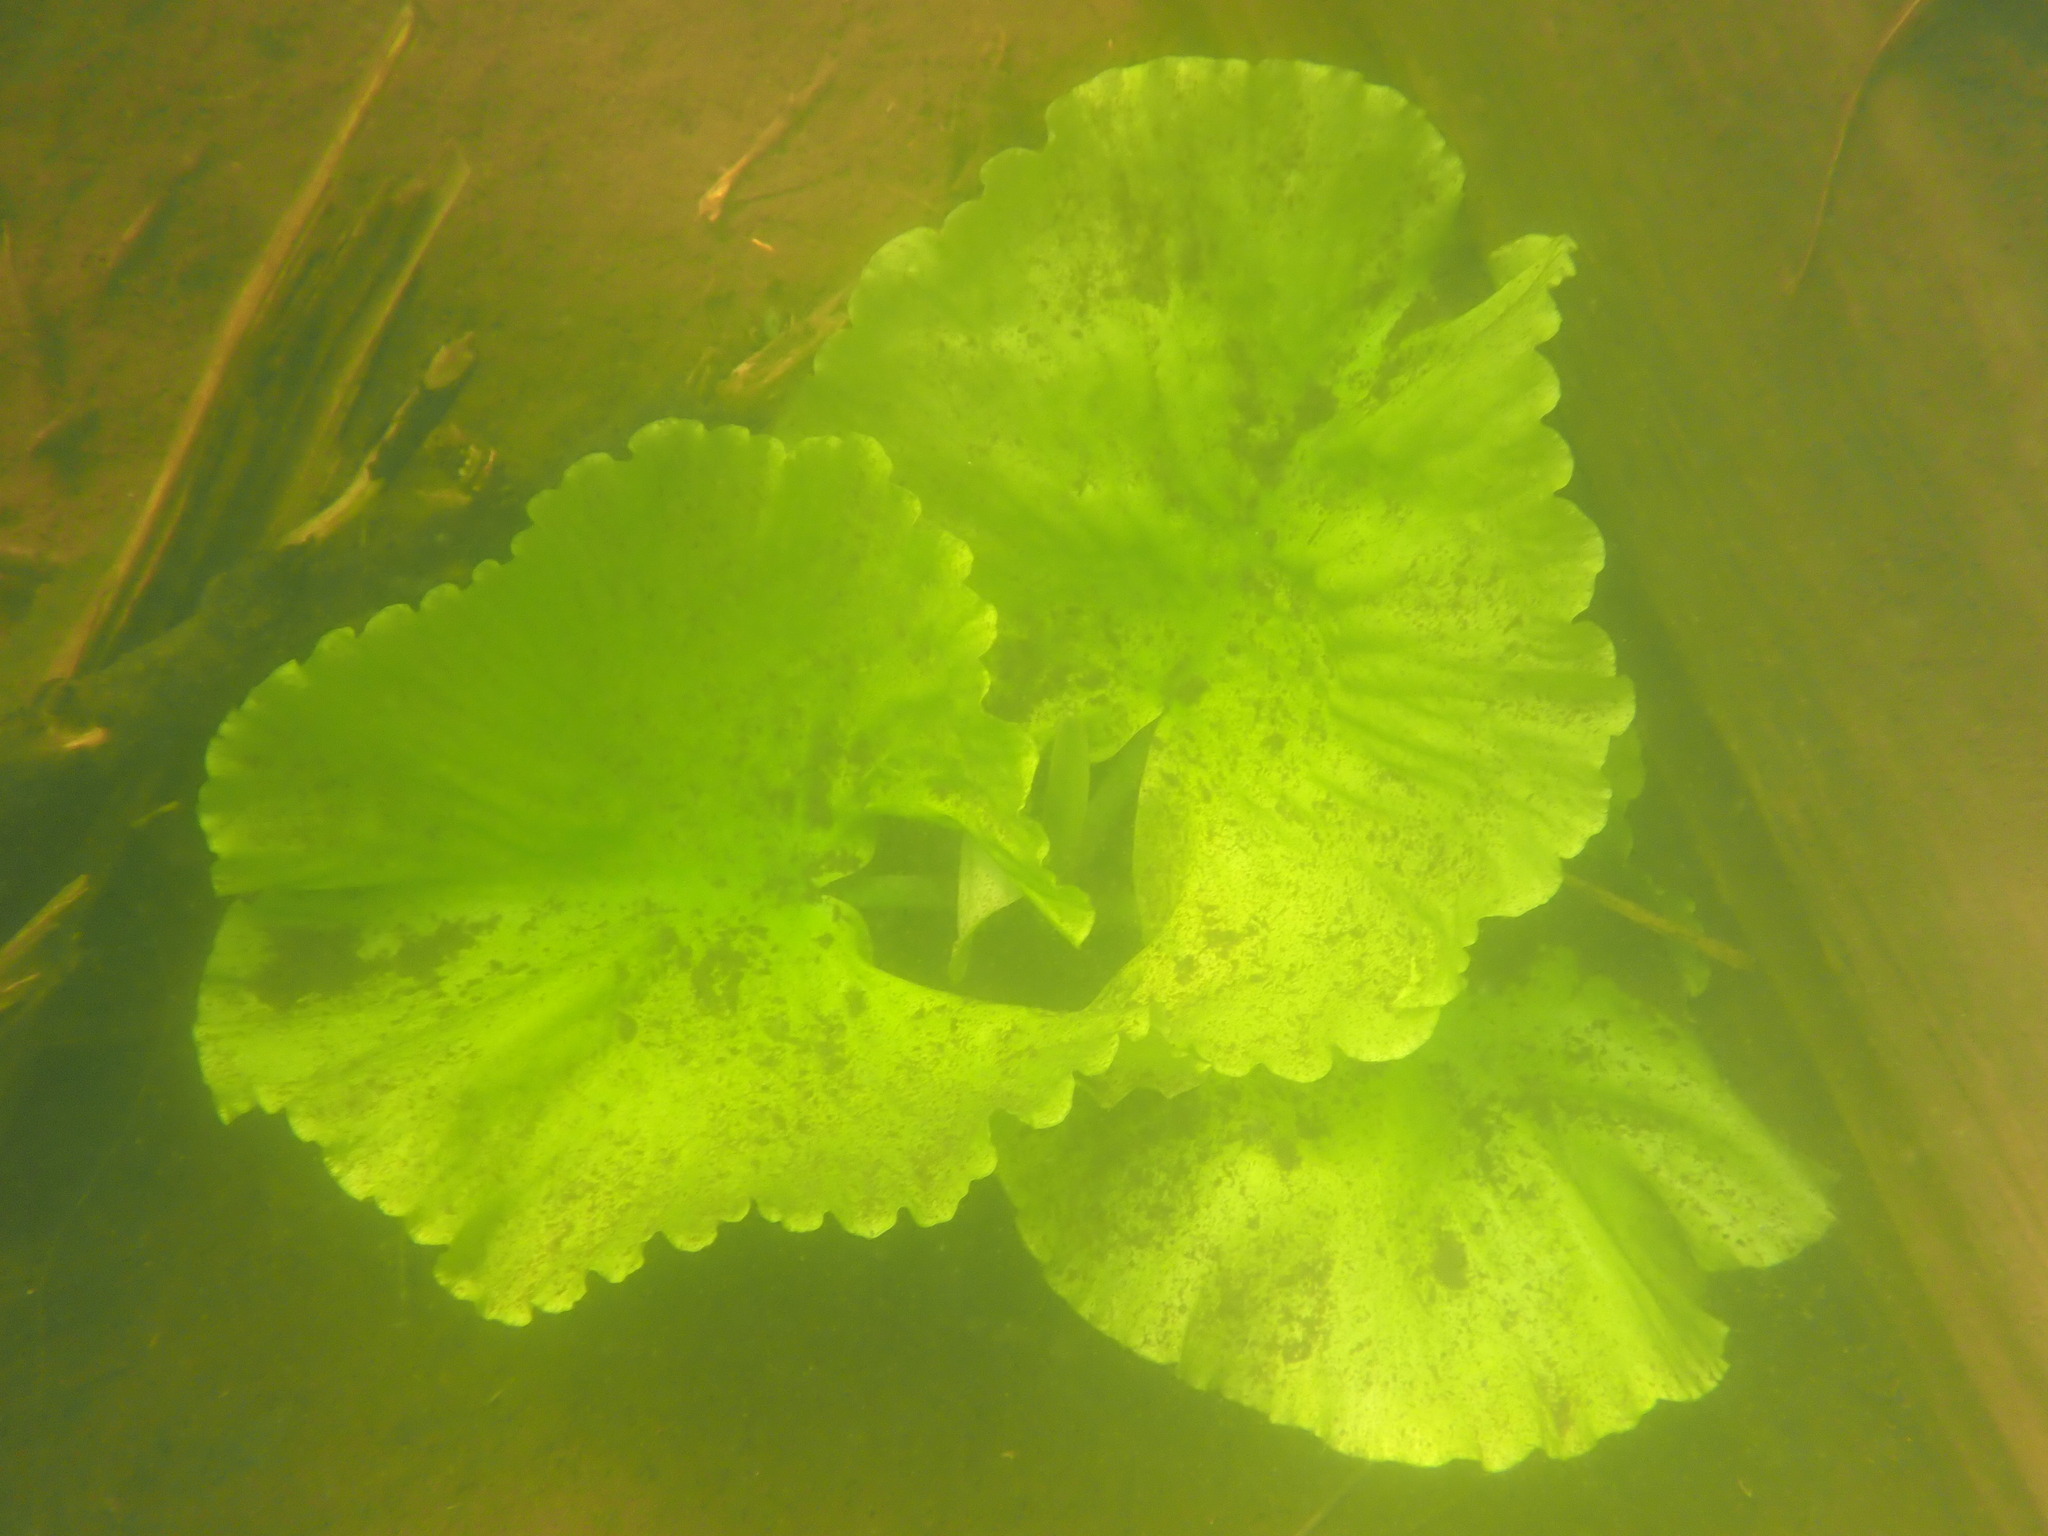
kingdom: Plantae
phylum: Tracheophyta
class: Magnoliopsida
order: Nymphaeales
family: Nymphaeaceae
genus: Nuphar
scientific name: Nuphar polysepala
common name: Rocky mountain cow-lily
